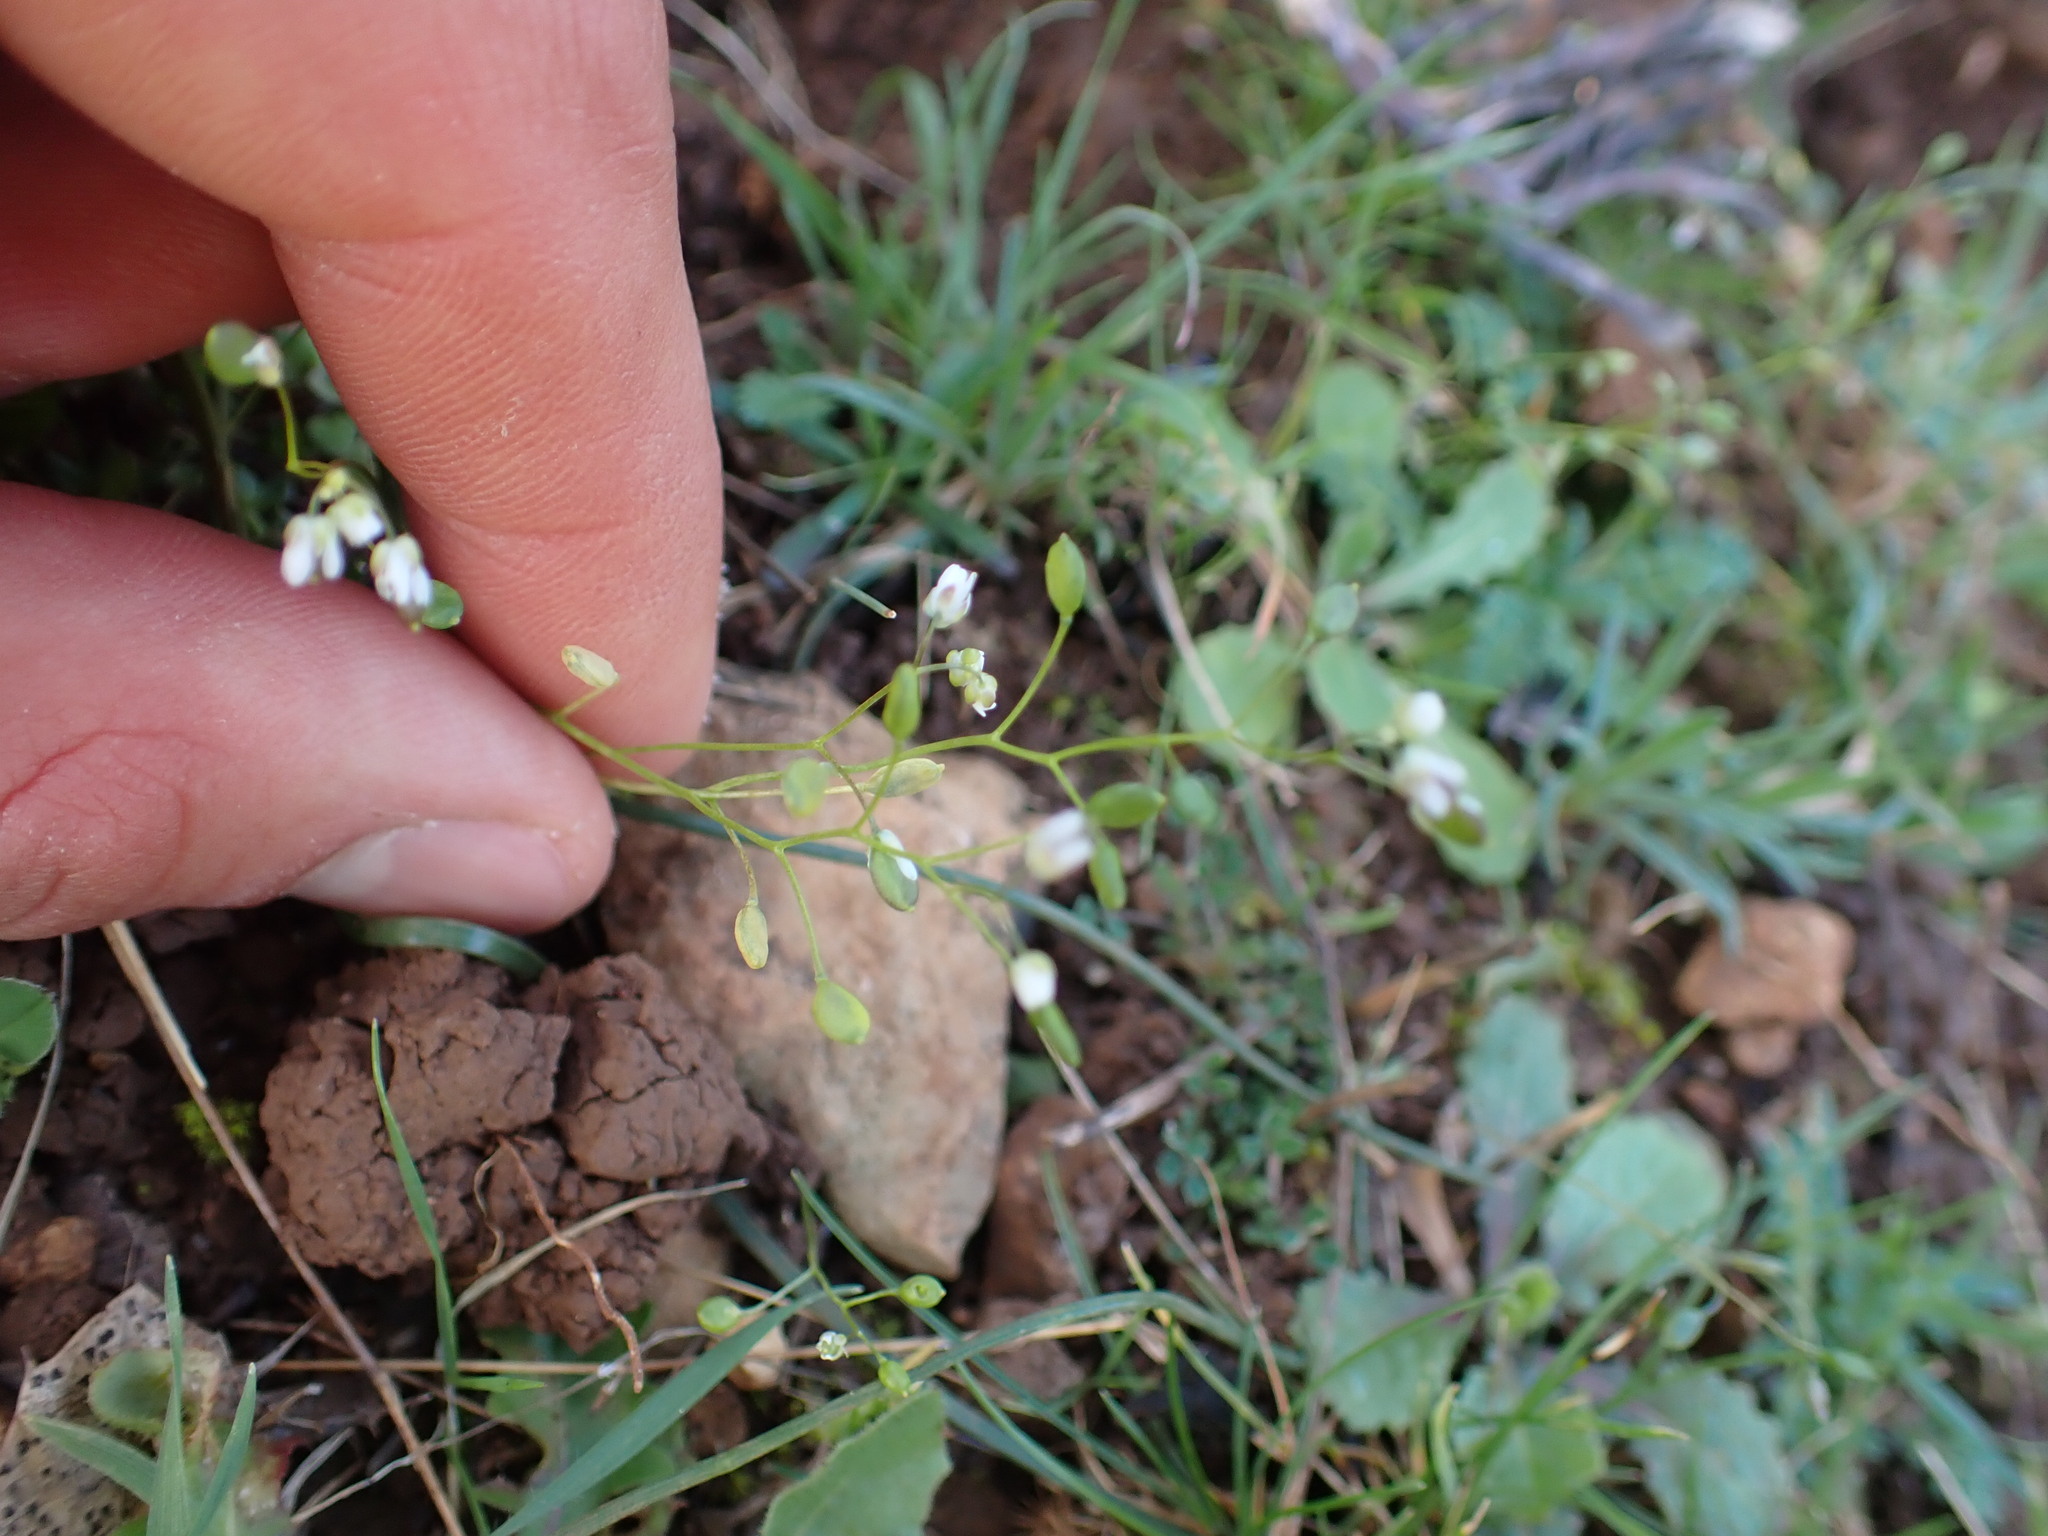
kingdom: Plantae
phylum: Tracheophyta
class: Magnoliopsida
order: Brassicales
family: Brassicaceae
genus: Draba
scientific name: Draba verna
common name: Spring draba
